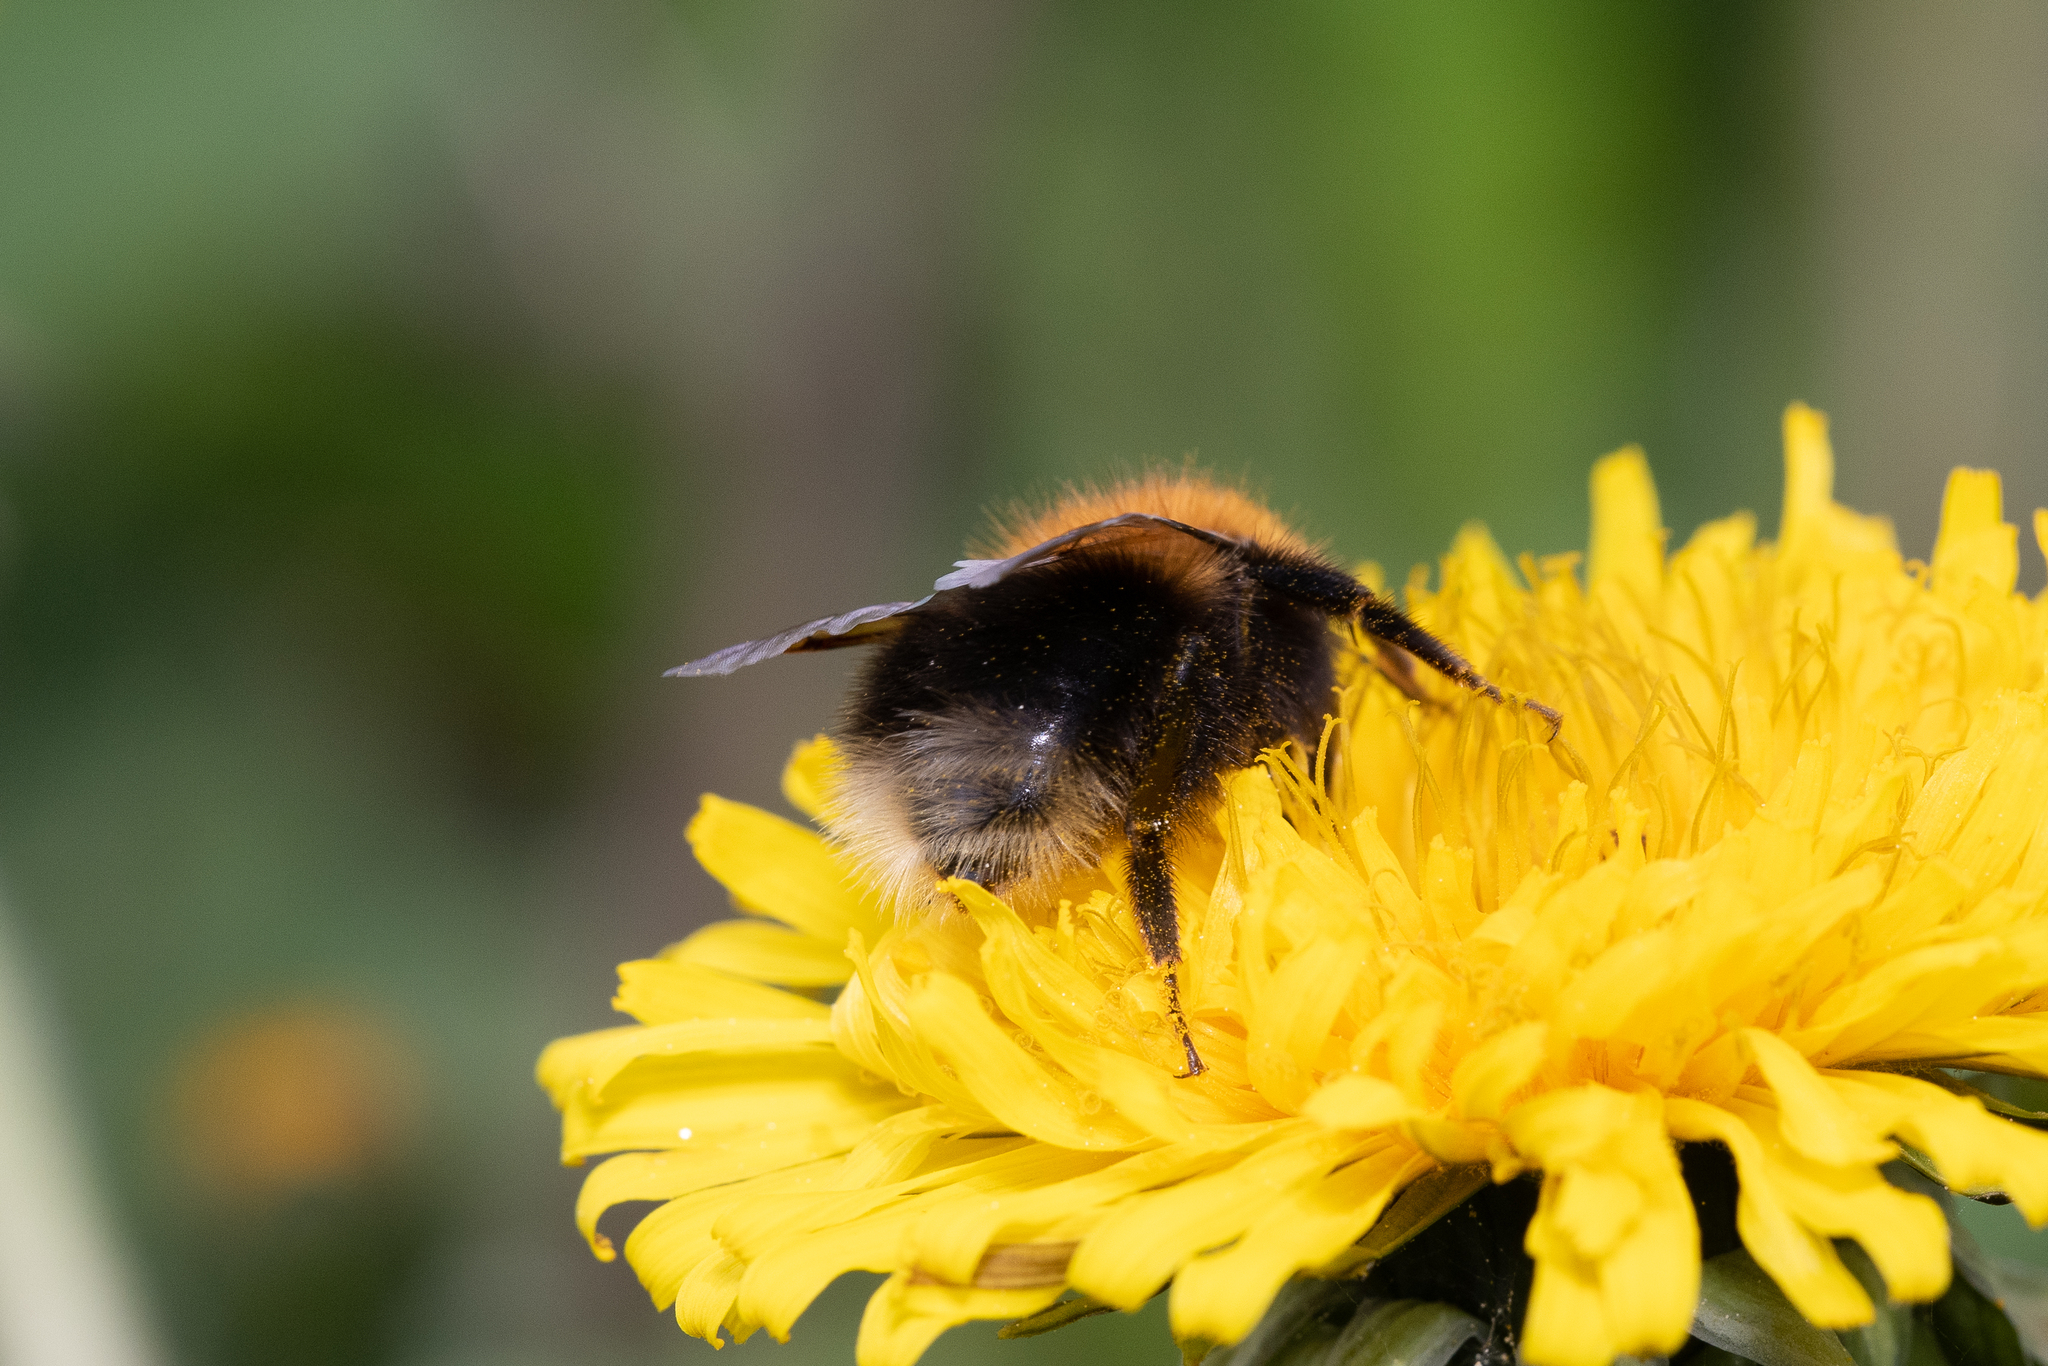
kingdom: Animalia
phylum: Arthropoda
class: Insecta
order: Hymenoptera
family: Apidae
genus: Bombus
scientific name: Bombus hypnorum
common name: New garden bumblebee
